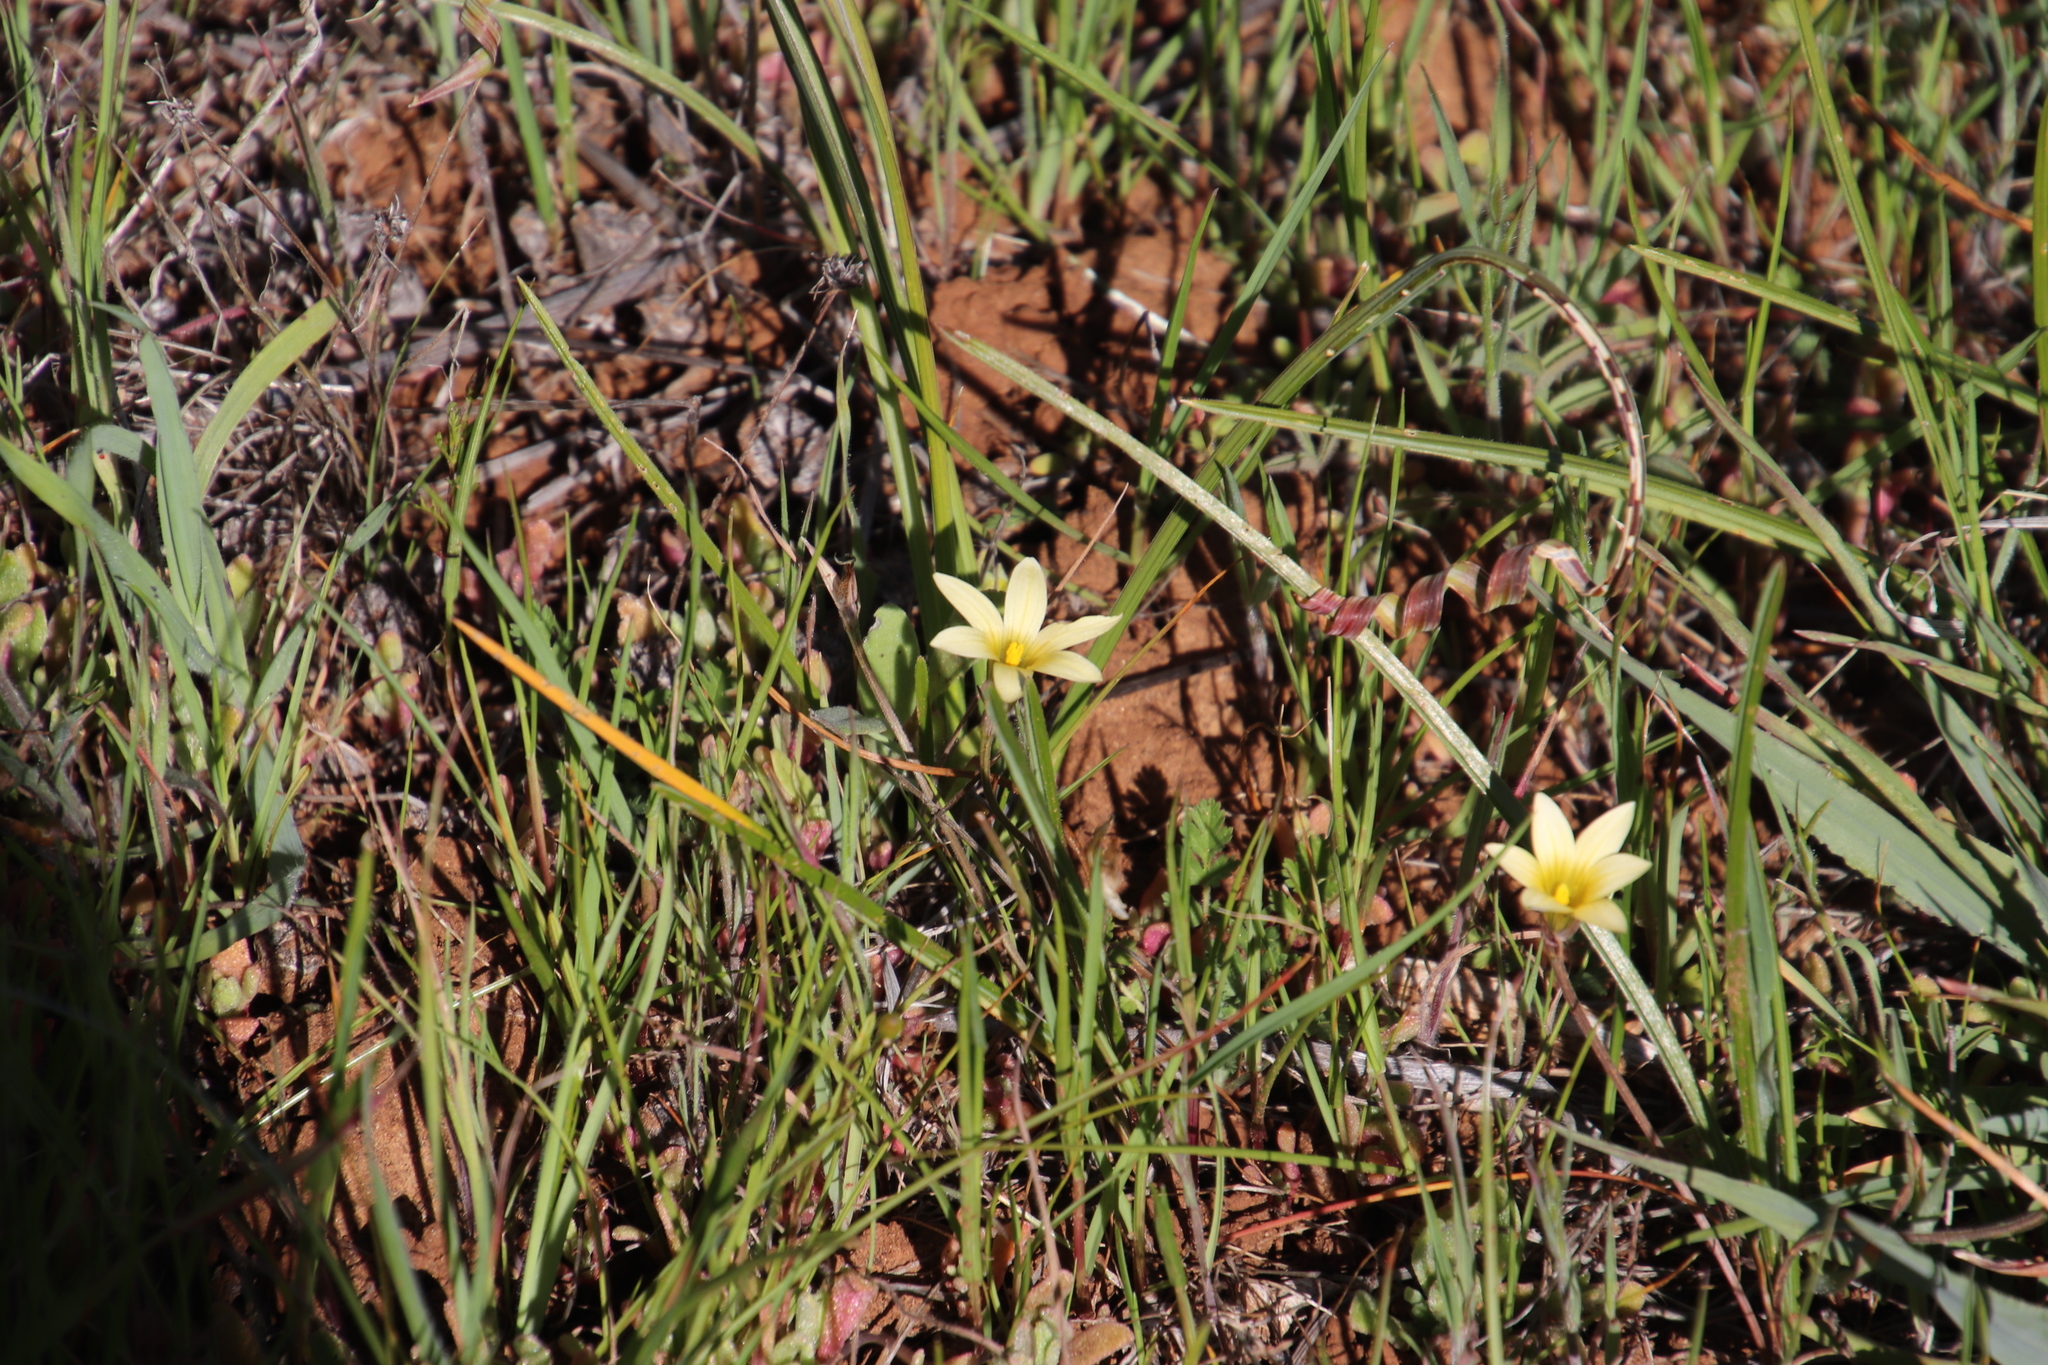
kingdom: Plantae
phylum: Tracheophyta
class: Liliopsida
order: Asparagales
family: Iridaceae
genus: Romulea
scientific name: Romulea hirta
